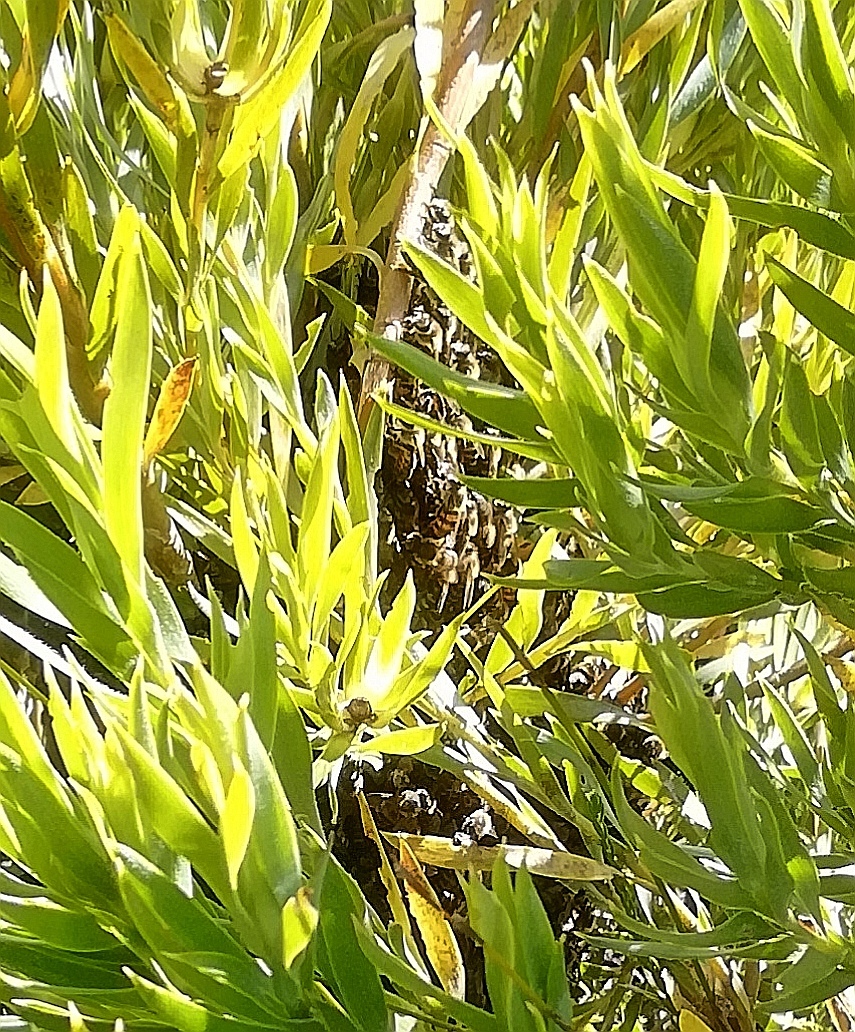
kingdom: Animalia
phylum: Arthropoda
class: Insecta
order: Hymenoptera
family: Apidae
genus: Apis
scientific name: Apis mellifera
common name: Honey bee
